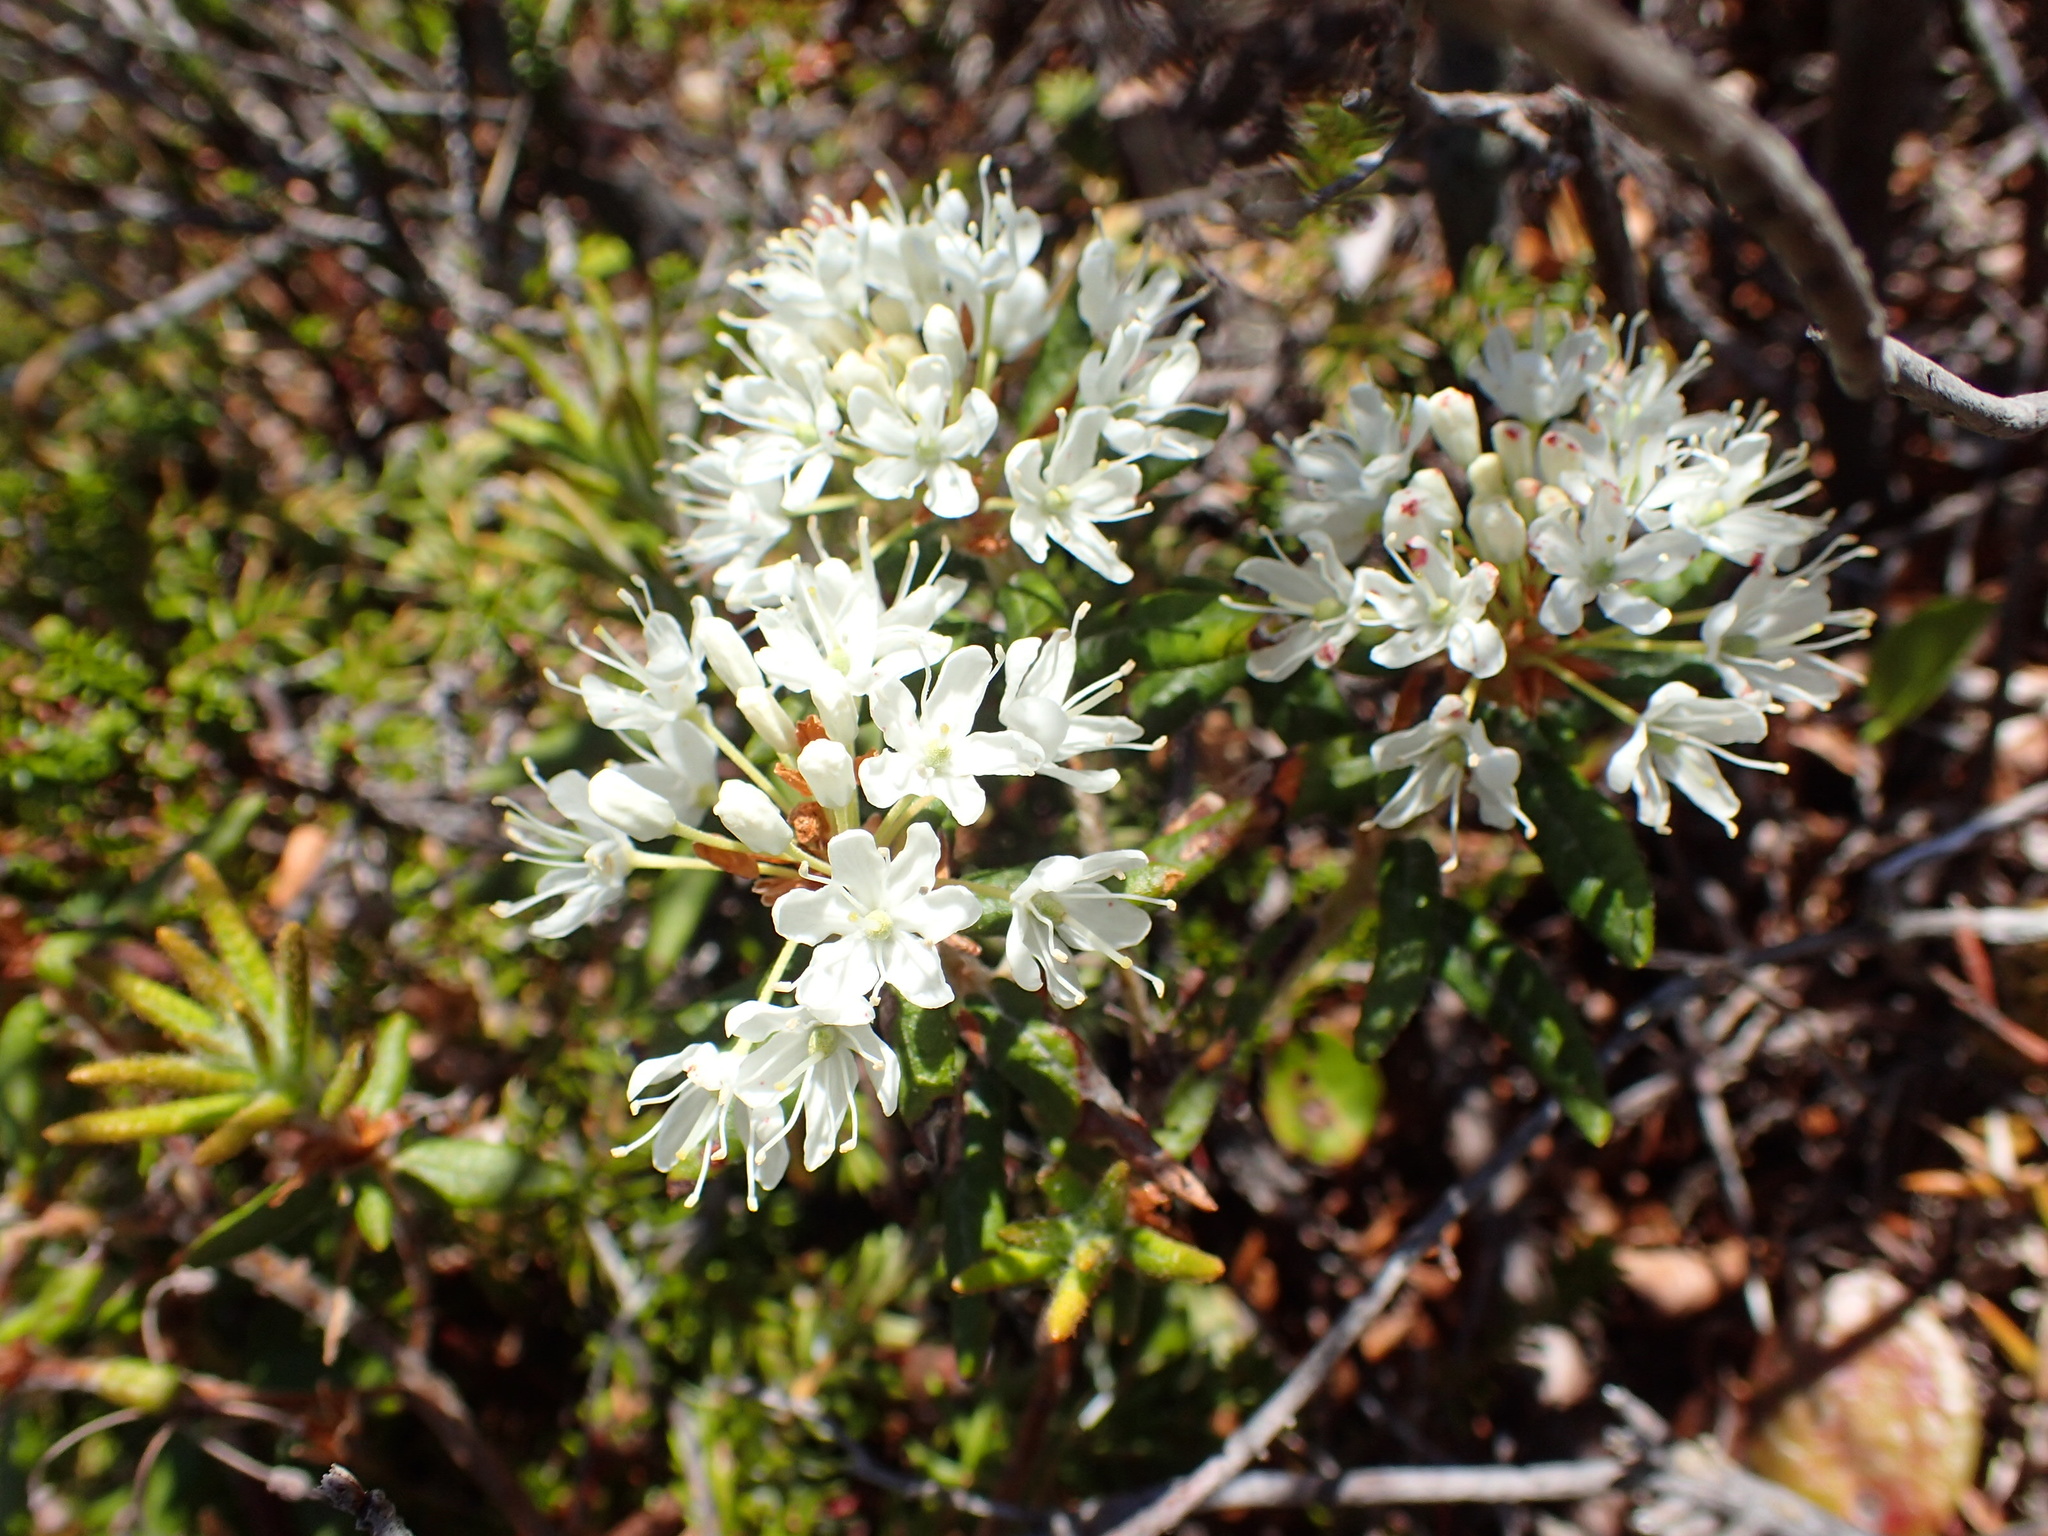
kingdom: Plantae
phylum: Tracheophyta
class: Magnoliopsida
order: Ericales
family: Ericaceae
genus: Rhododendron
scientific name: Rhododendron groenlandicum
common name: Bog labrador tea
